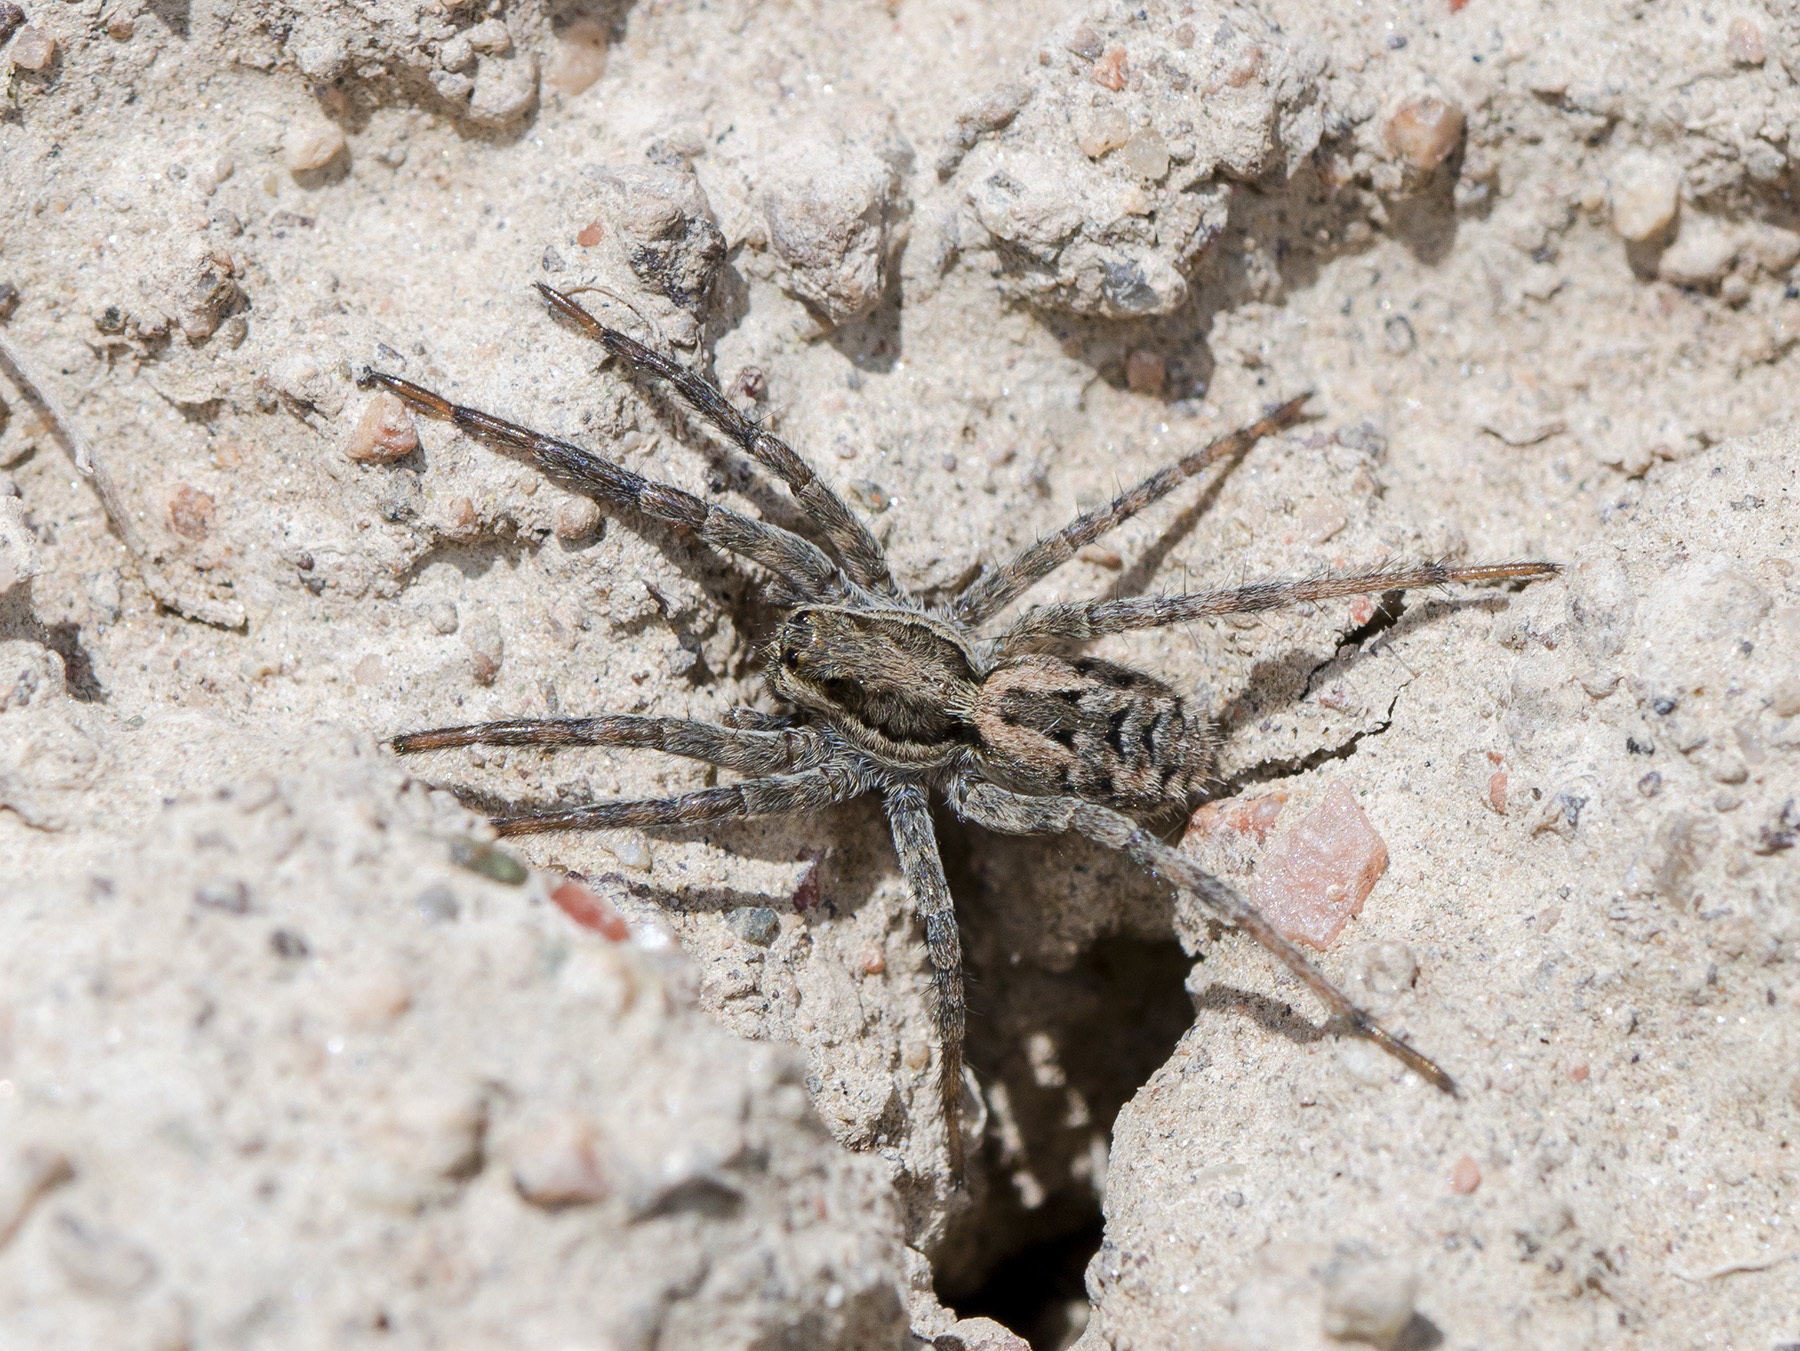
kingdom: Animalia
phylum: Arthropoda
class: Arachnida
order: Araneae
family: Lycosidae
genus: Lycosa
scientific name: Lycosa praegrandis
